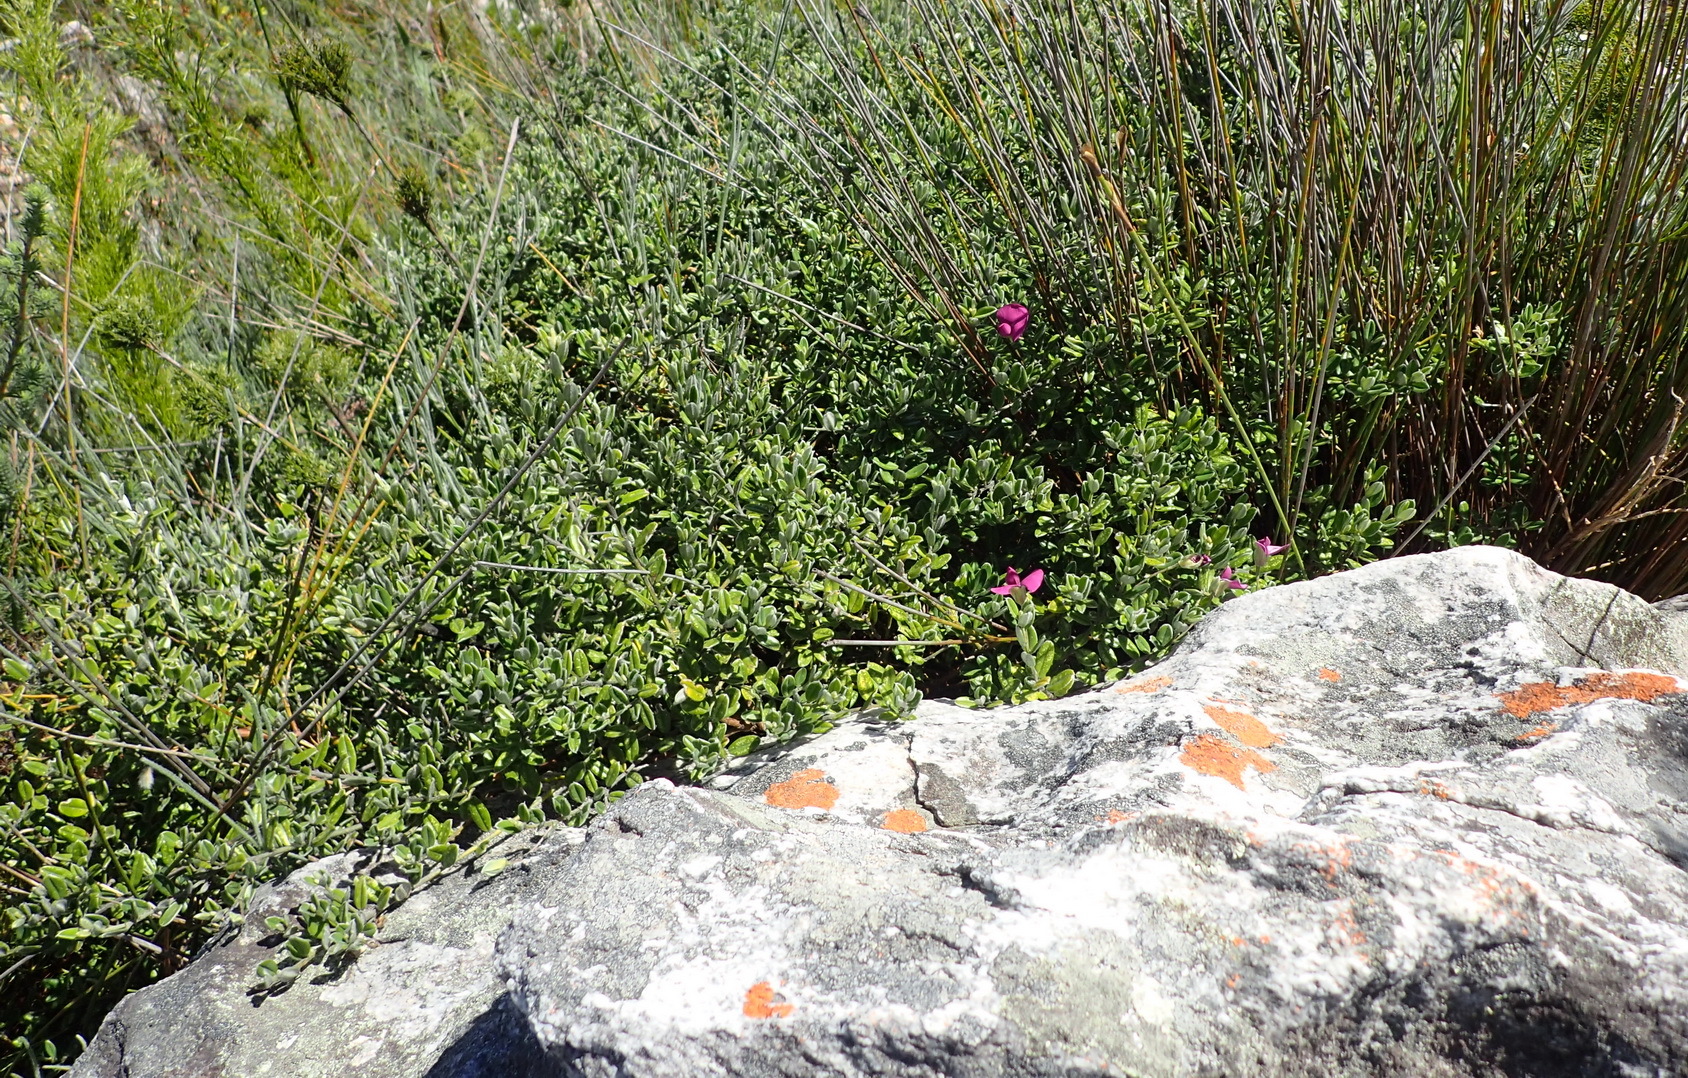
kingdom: Plantae
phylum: Tracheophyta
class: Magnoliopsida
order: Fabales
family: Fabaceae
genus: Podalyria
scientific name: Podalyria buxifolia
